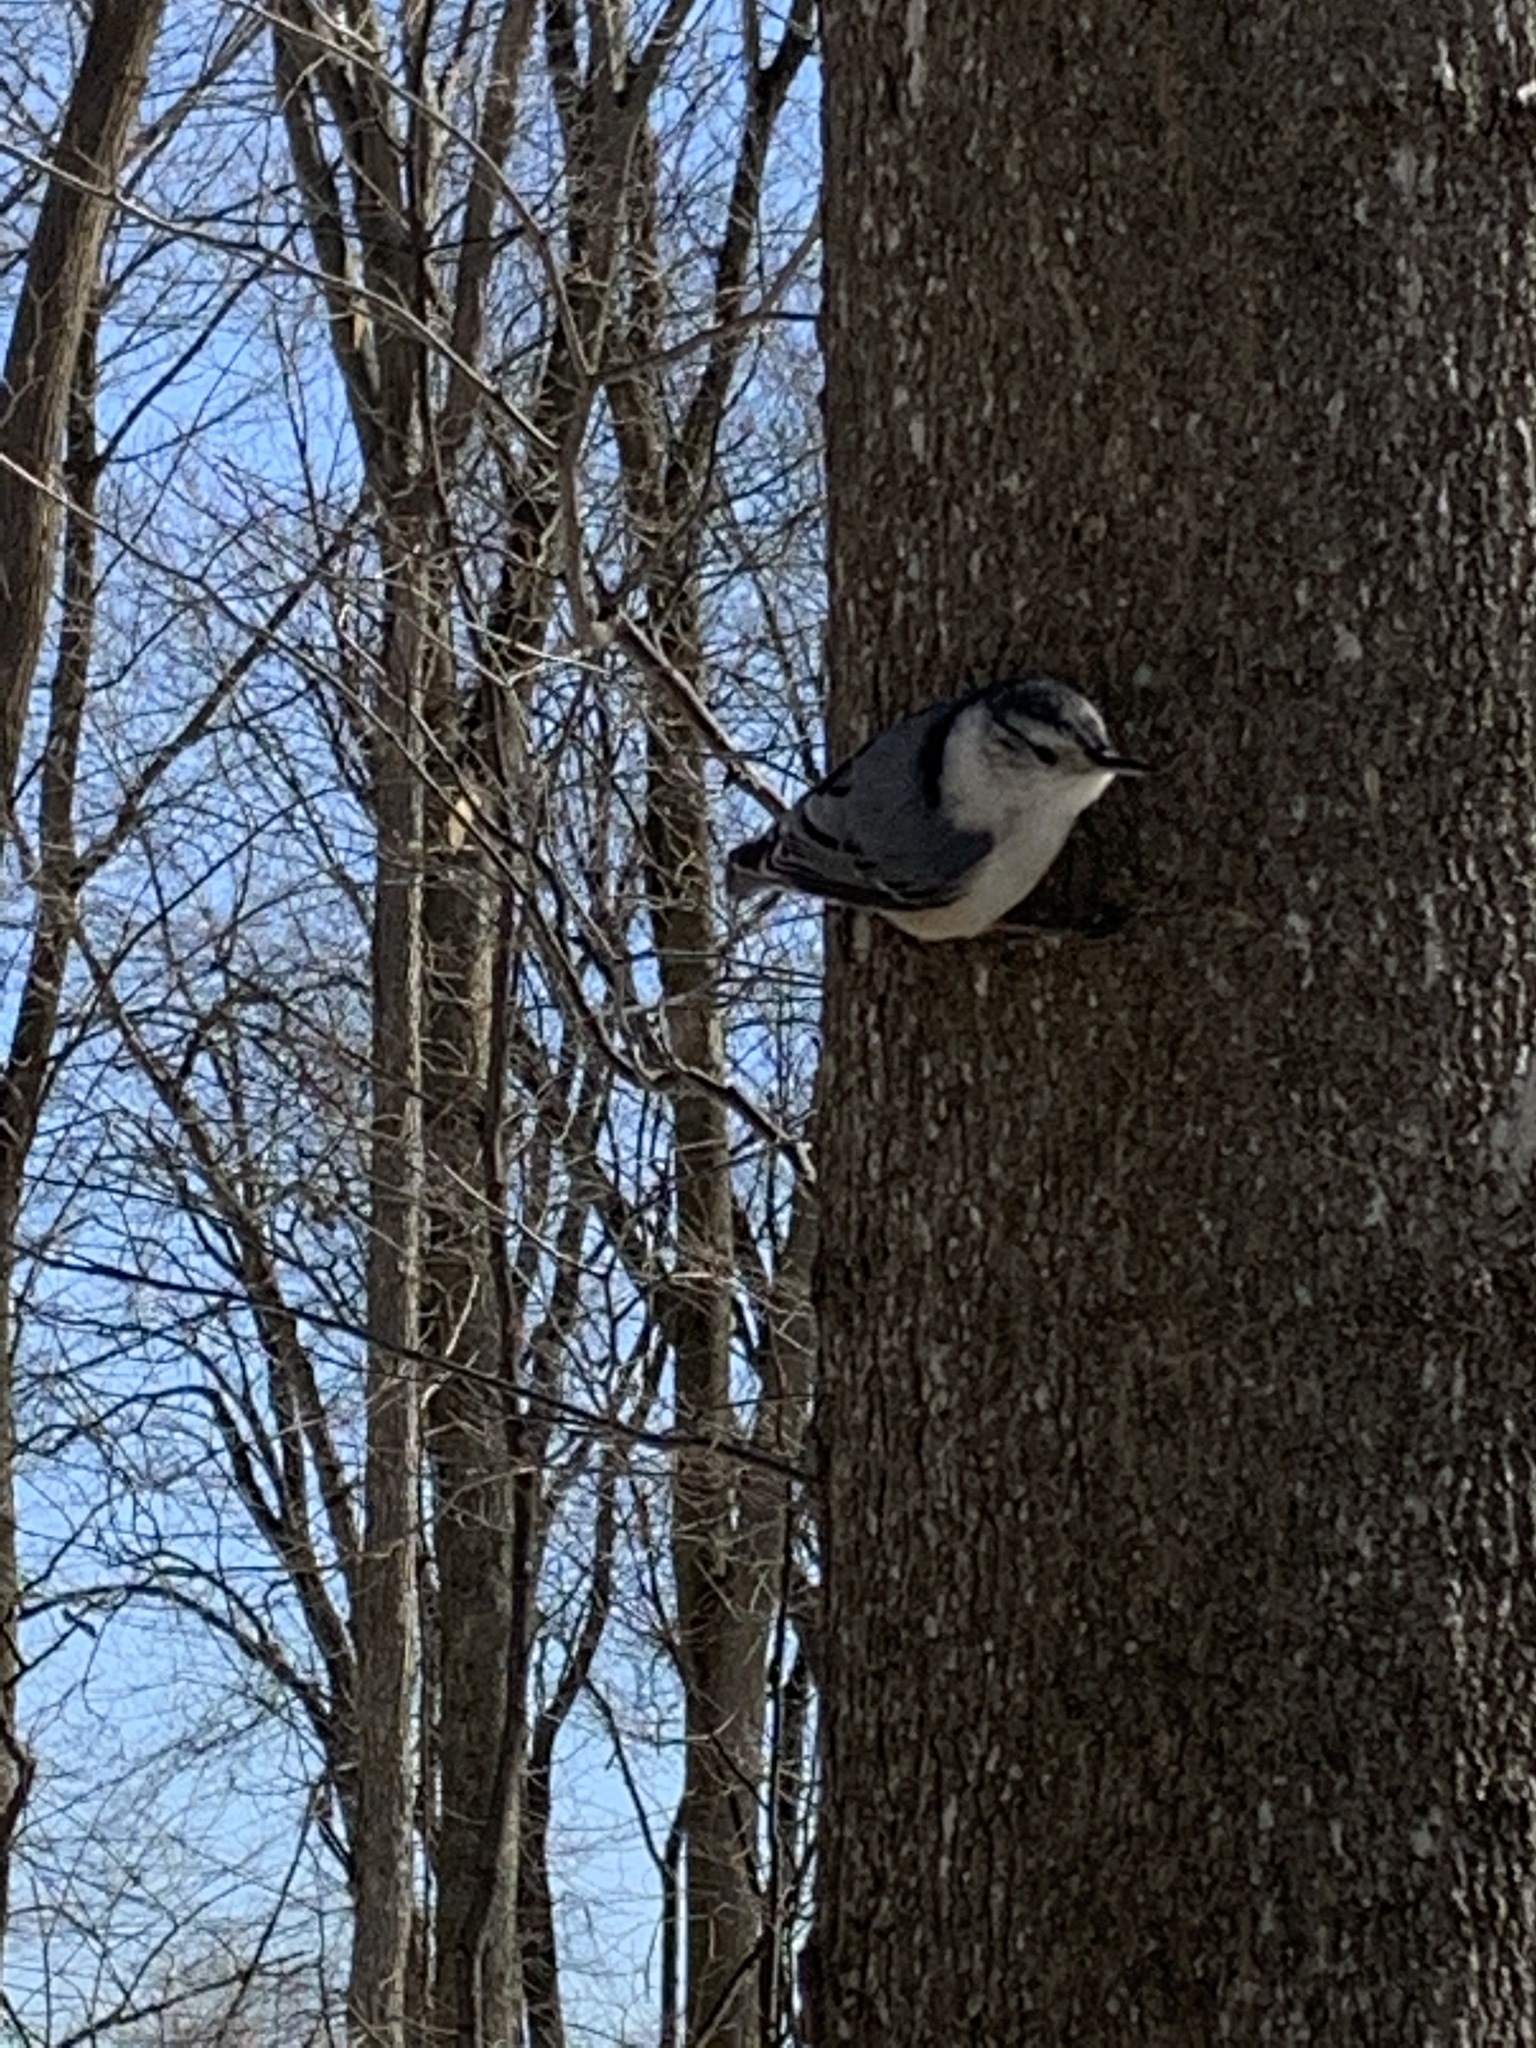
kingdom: Animalia
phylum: Chordata
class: Aves
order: Passeriformes
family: Sittidae
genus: Sitta
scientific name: Sitta carolinensis
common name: White-breasted nuthatch
